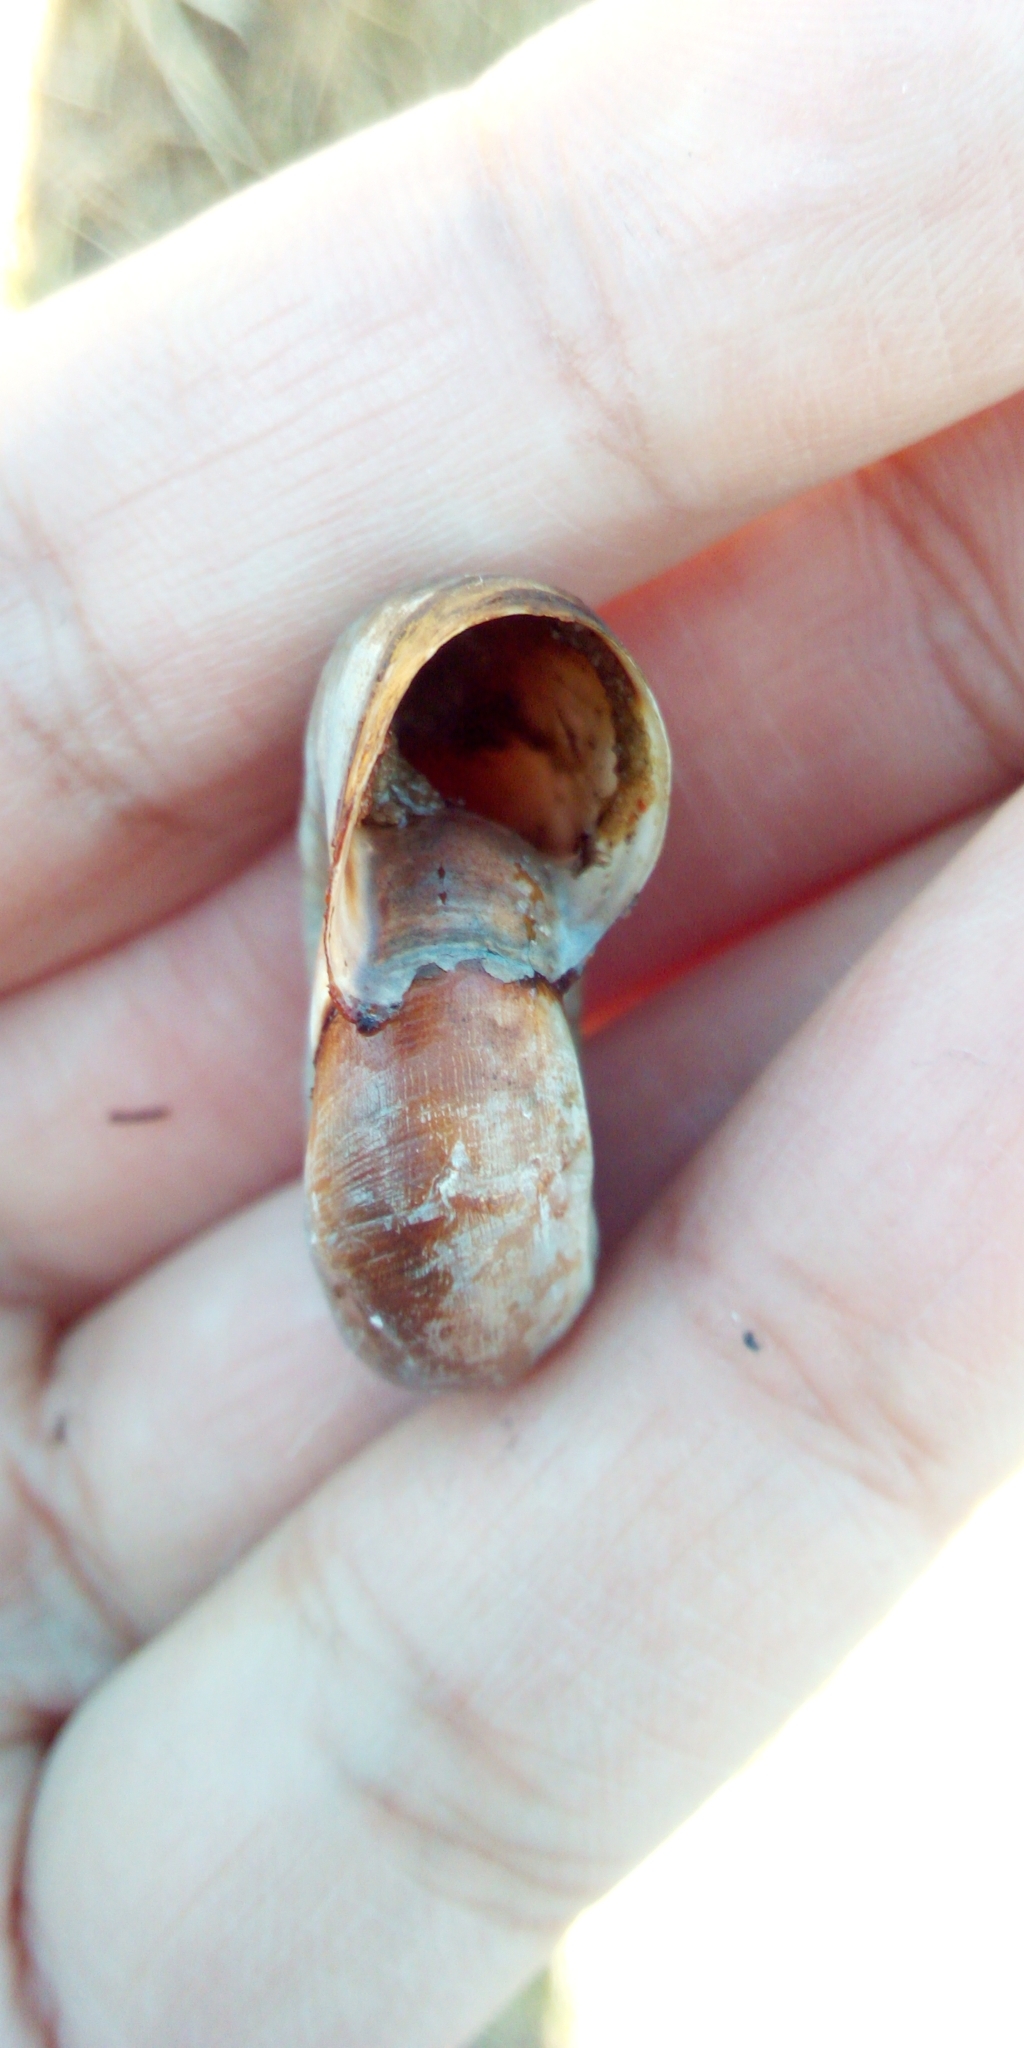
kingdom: Animalia
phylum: Mollusca
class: Gastropoda
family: Planorbidae
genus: Planorbarius
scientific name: Planorbarius corneus
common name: Great ramshorn
